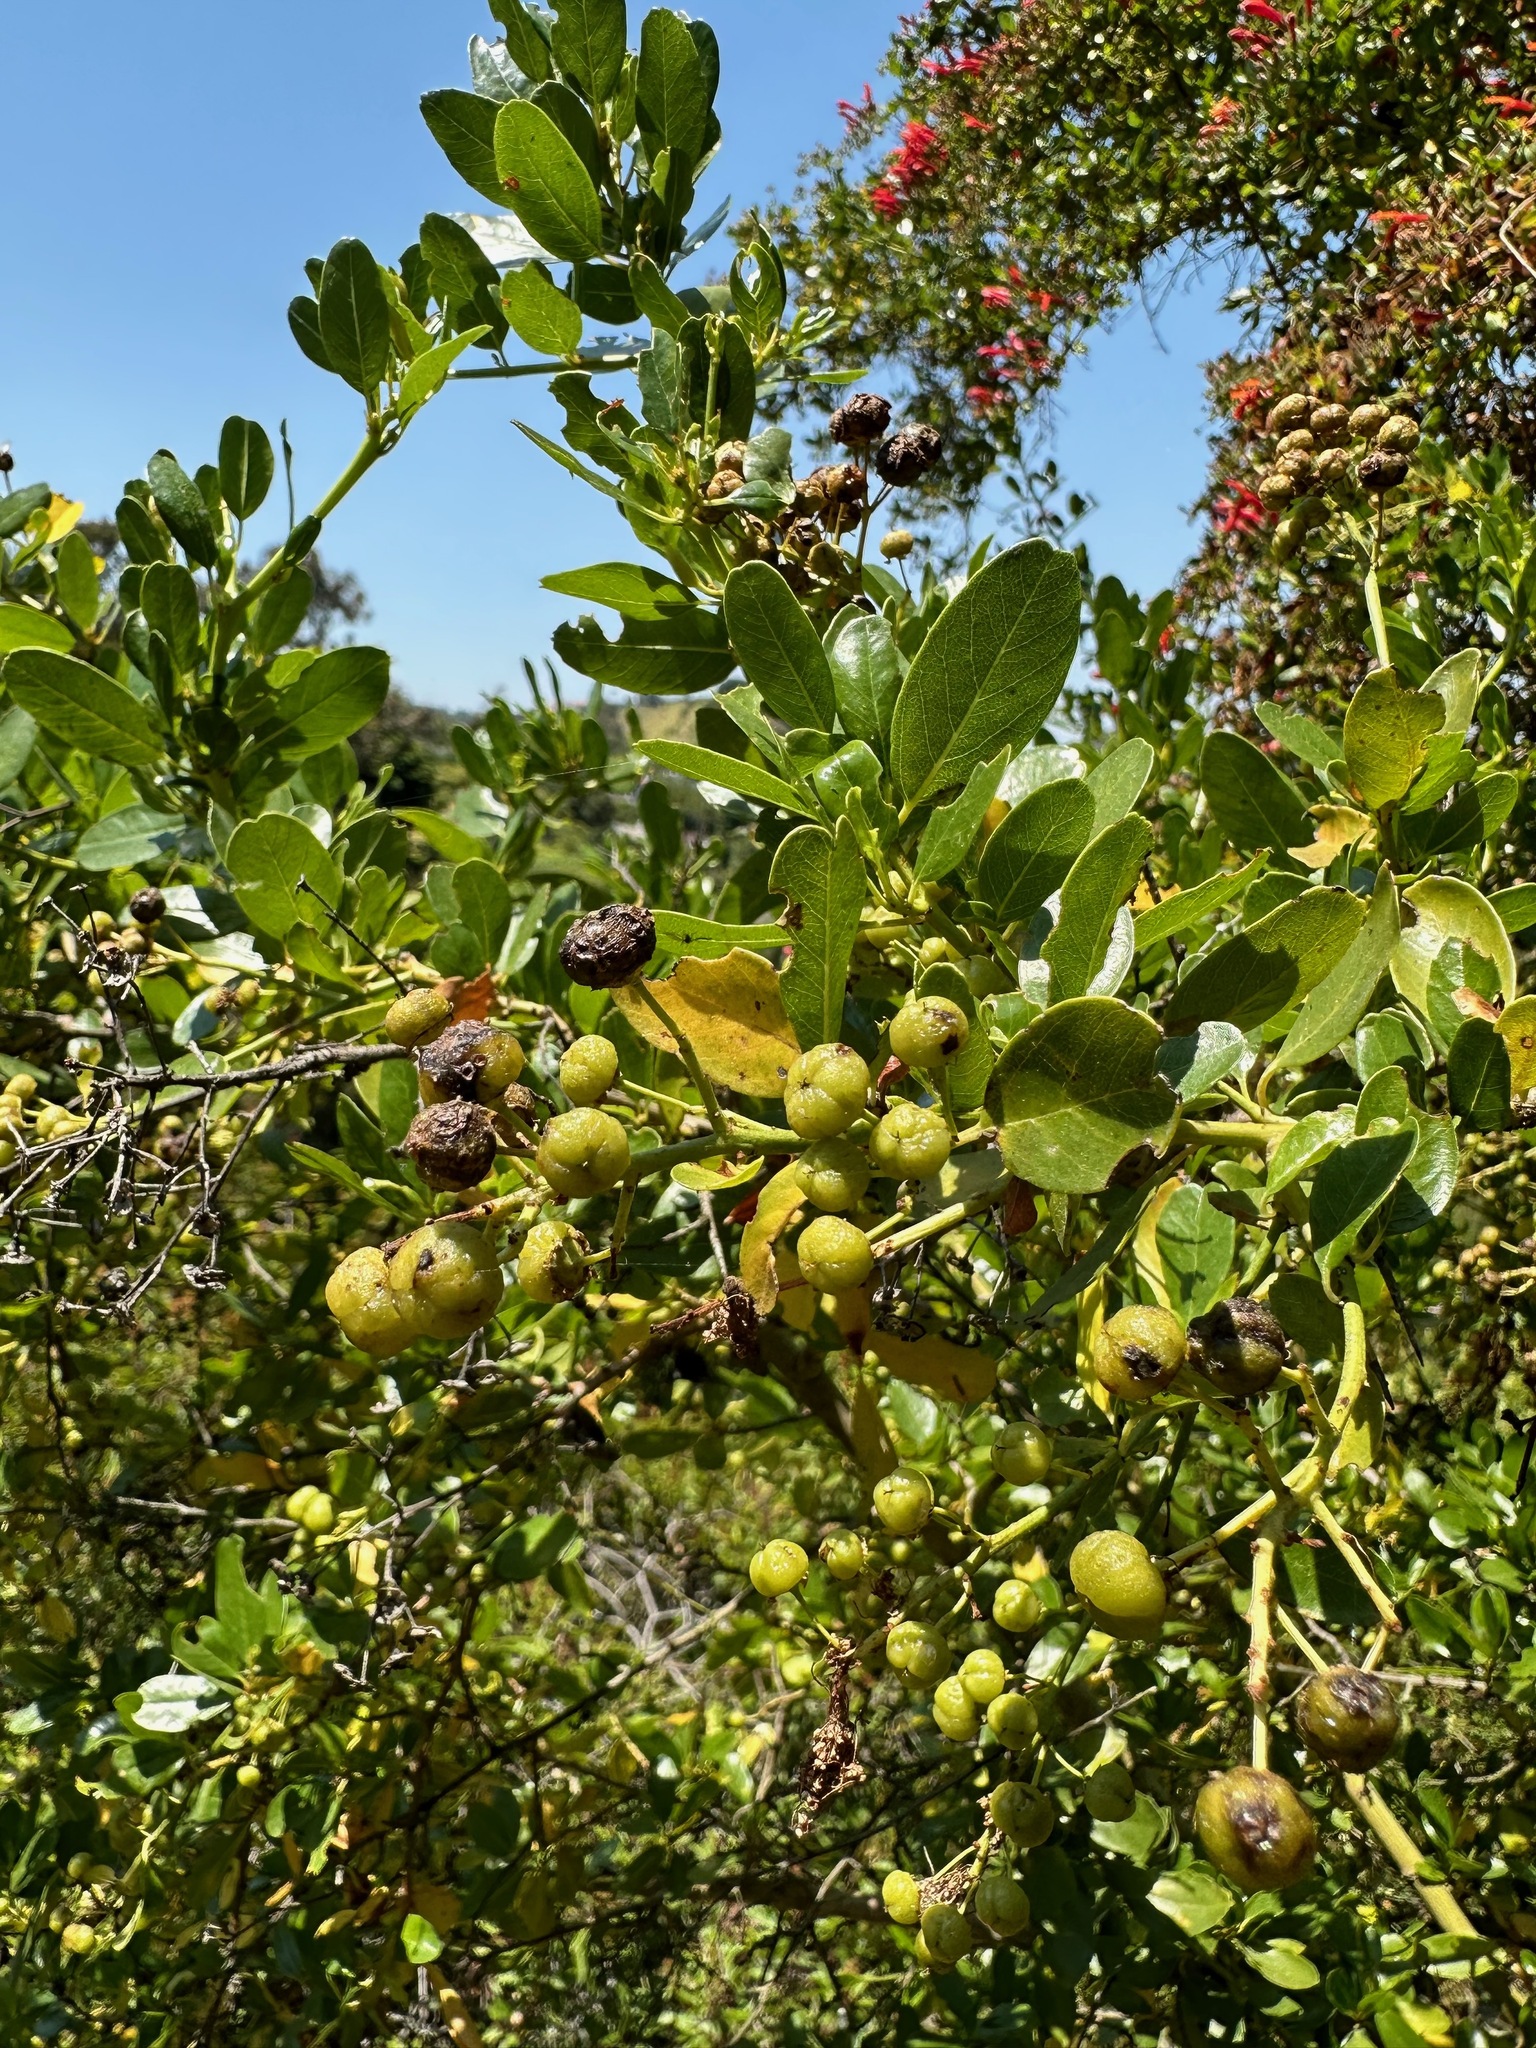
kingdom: Plantae
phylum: Tracheophyta
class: Magnoliopsida
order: Rosales
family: Rhamnaceae
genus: Ceanothus
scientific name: Ceanothus spinosus
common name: Greenbark whitethorn
